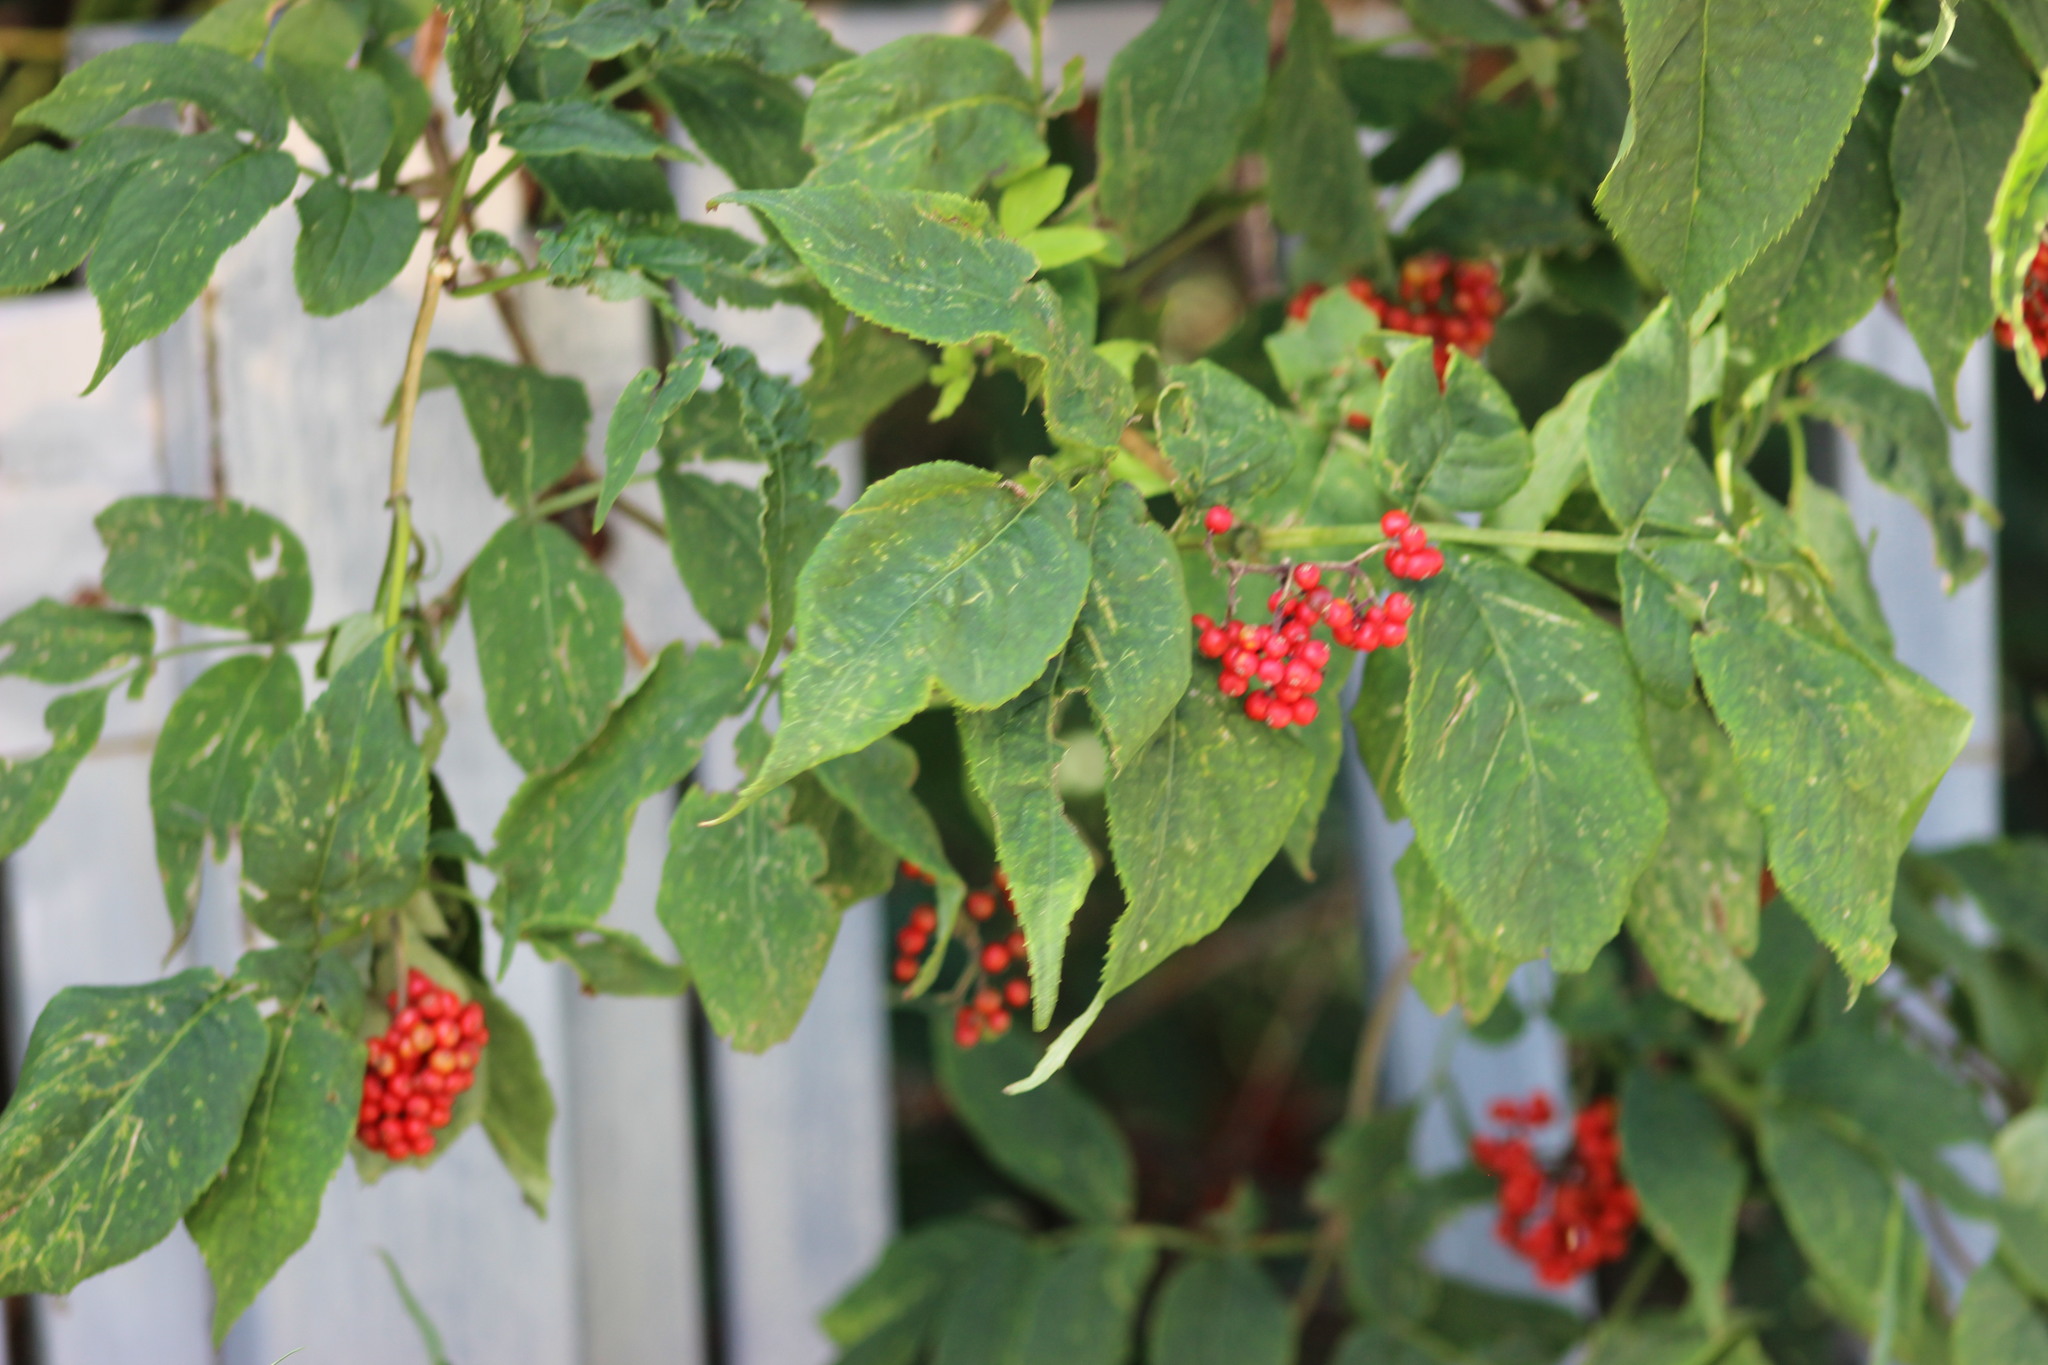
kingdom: Plantae
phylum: Tracheophyta
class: Magnoliopsida
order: Dipsacales
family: Viburnaceae
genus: Sambucus
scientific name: Sambucus sibirica
